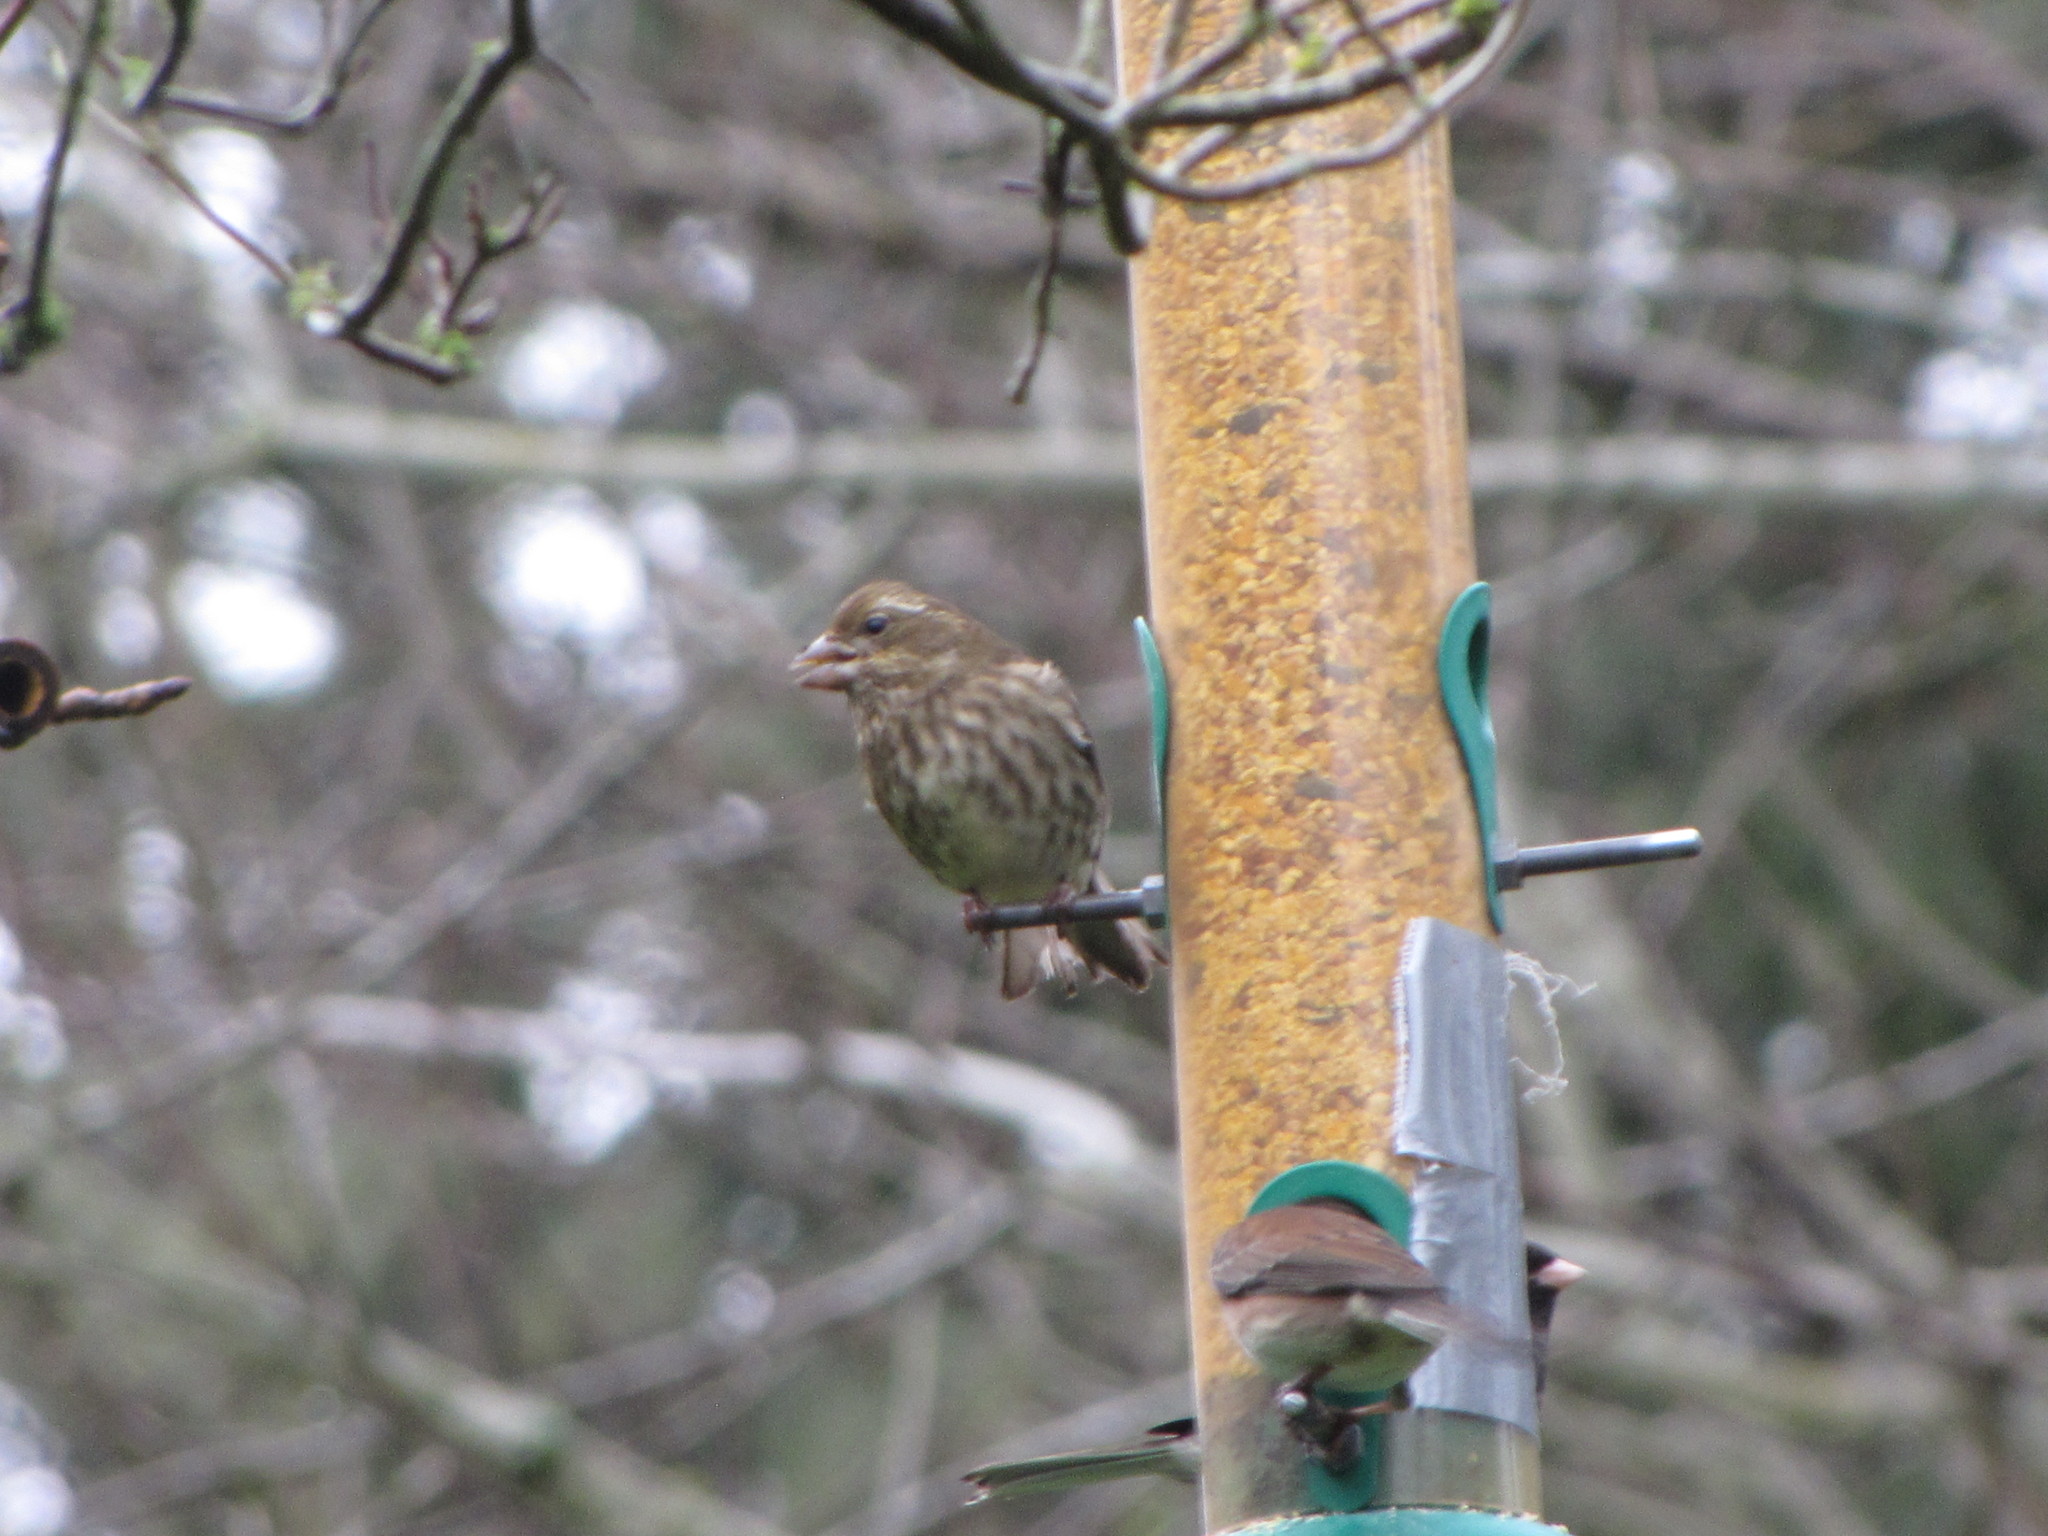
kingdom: Animalia
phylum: Chordata
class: Aves
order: Passeriformes
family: Fringillidae
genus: Haemorhous
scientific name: Haemorhous purpureus
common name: Purple finch
